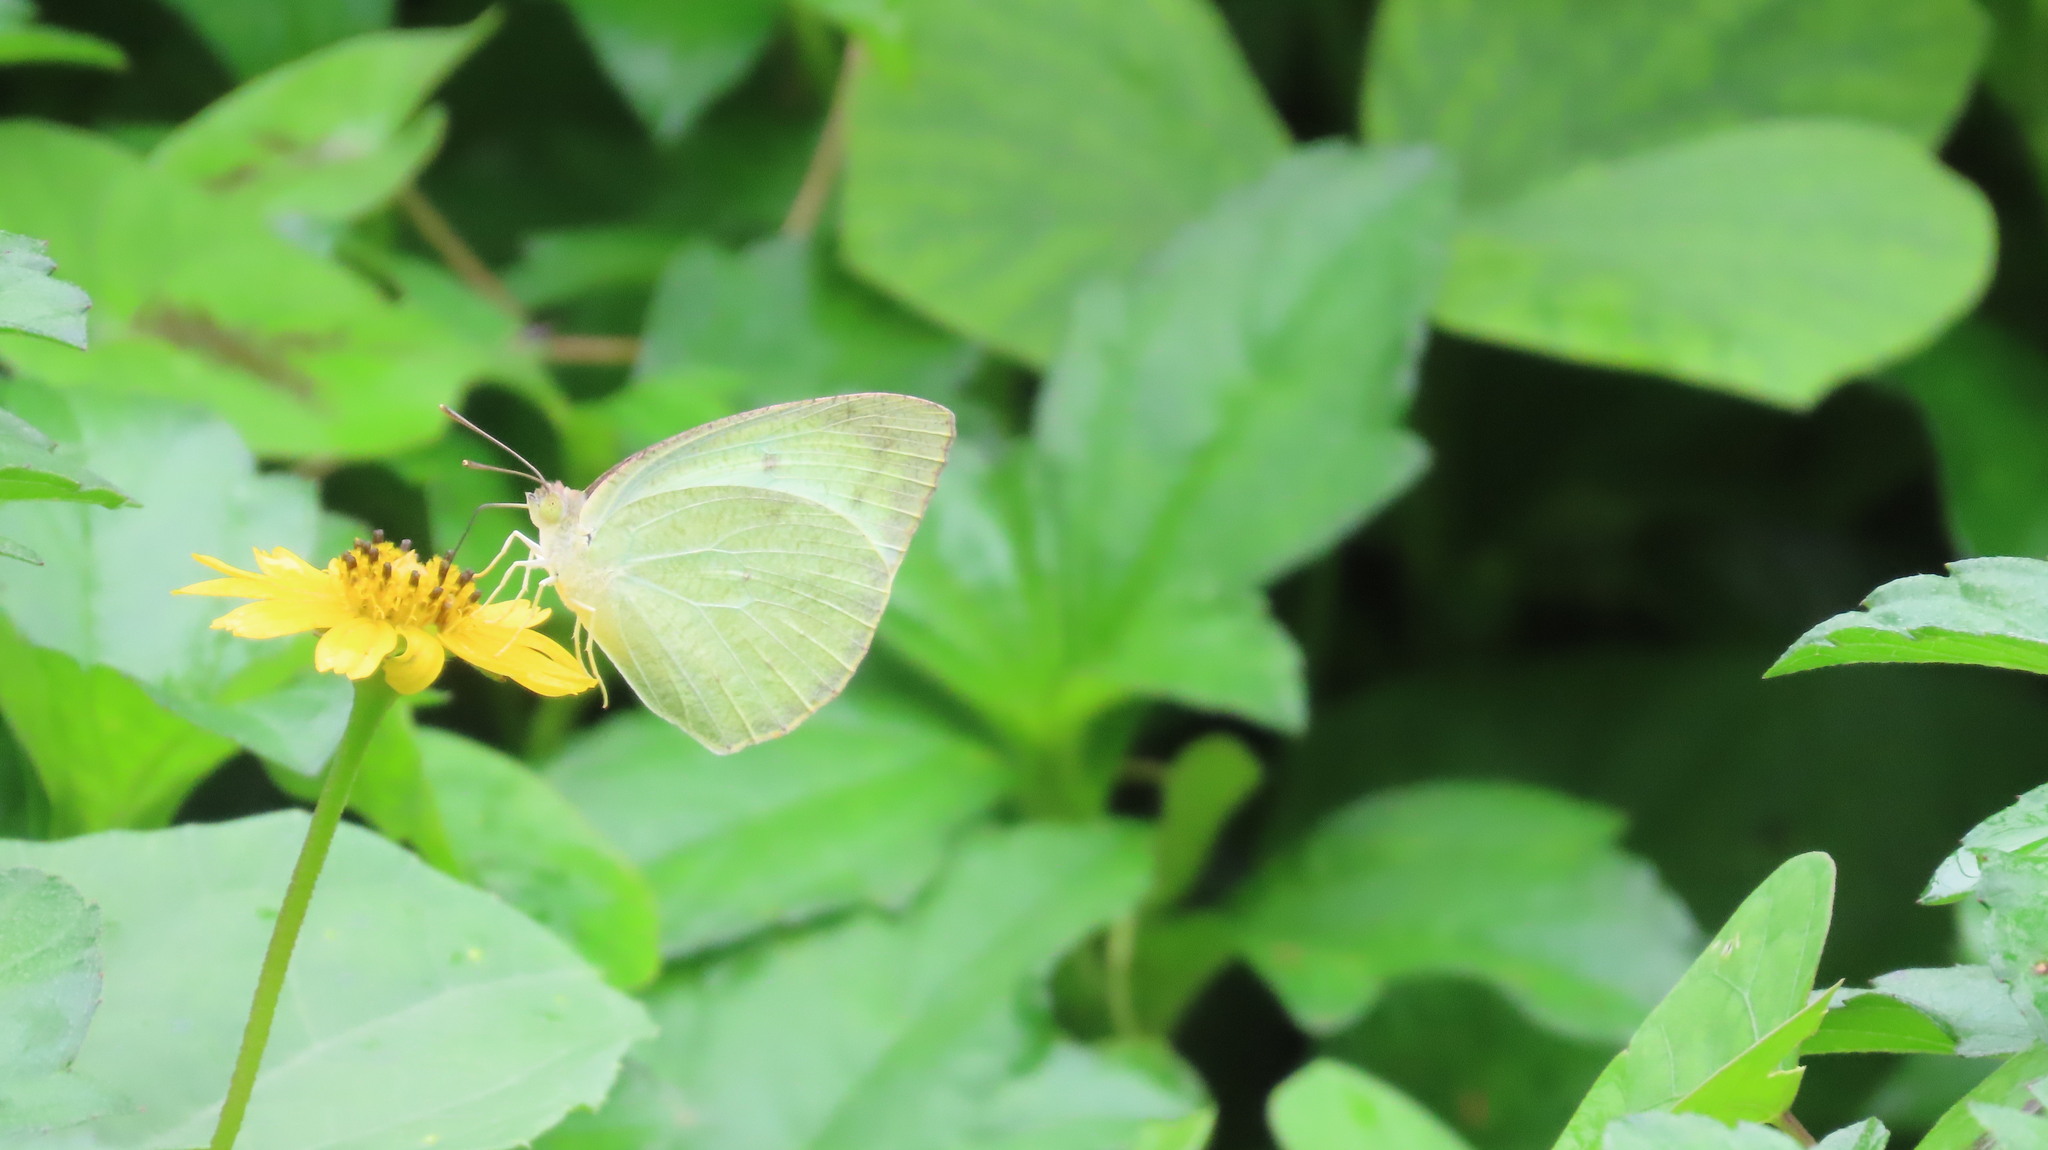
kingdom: Animalia
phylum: Arthropoda
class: Insecta
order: Lepidoptera
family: Pieridae
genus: Catopsilia
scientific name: Catopsilia pyranthe
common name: Mottled emigrant
